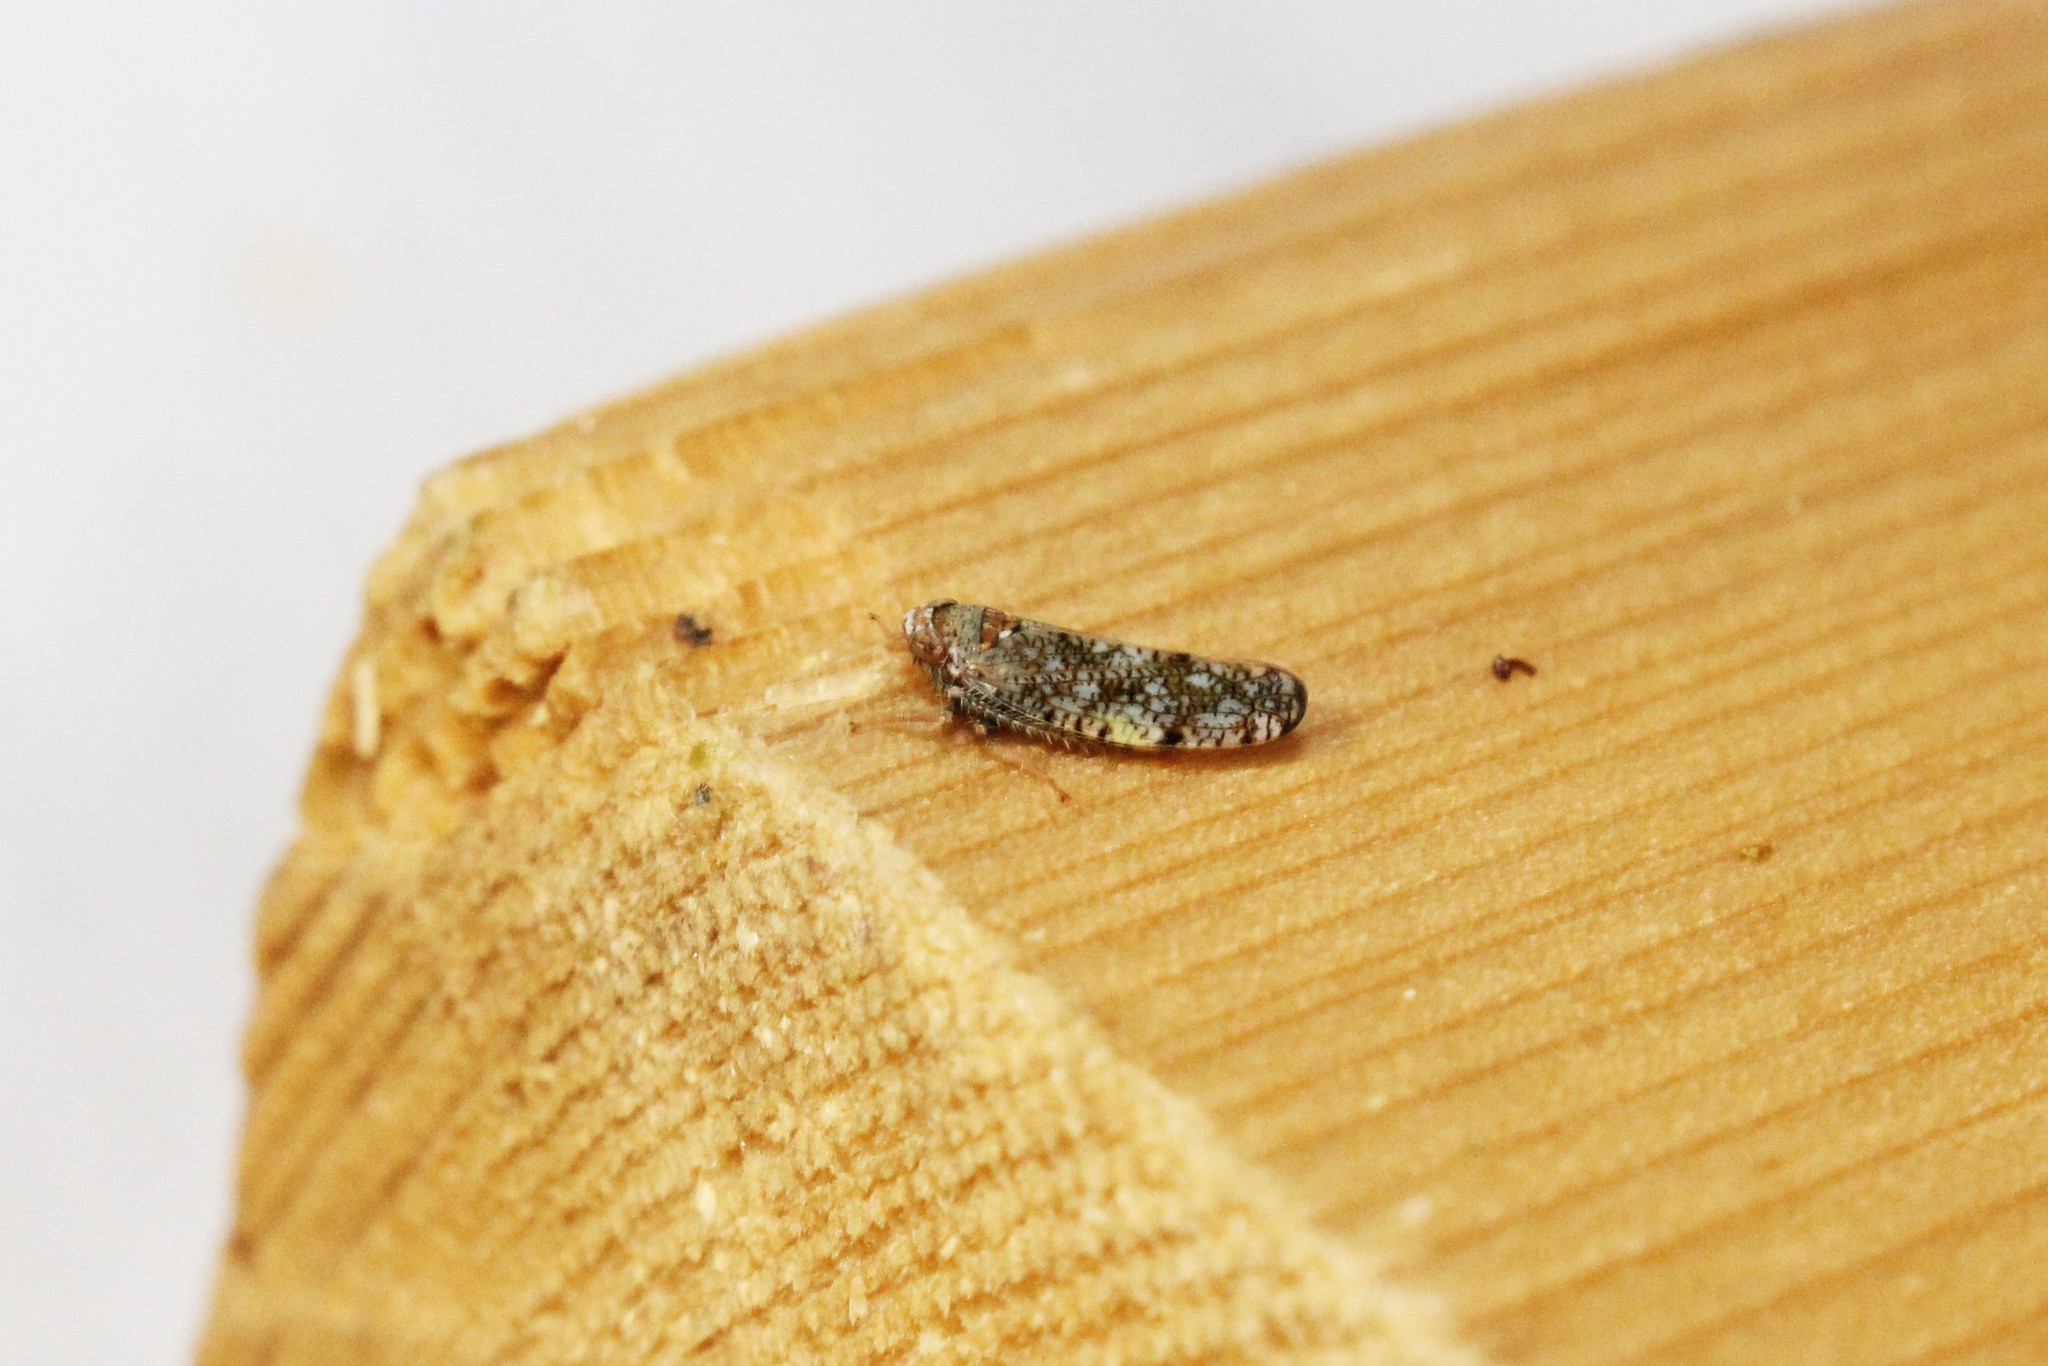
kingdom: Animalia
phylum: Arthropoda
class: Insecta
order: Hemiptera
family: Cicadellidae
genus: Orientus
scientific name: Orientus ishidae
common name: Japanese leafhopper
